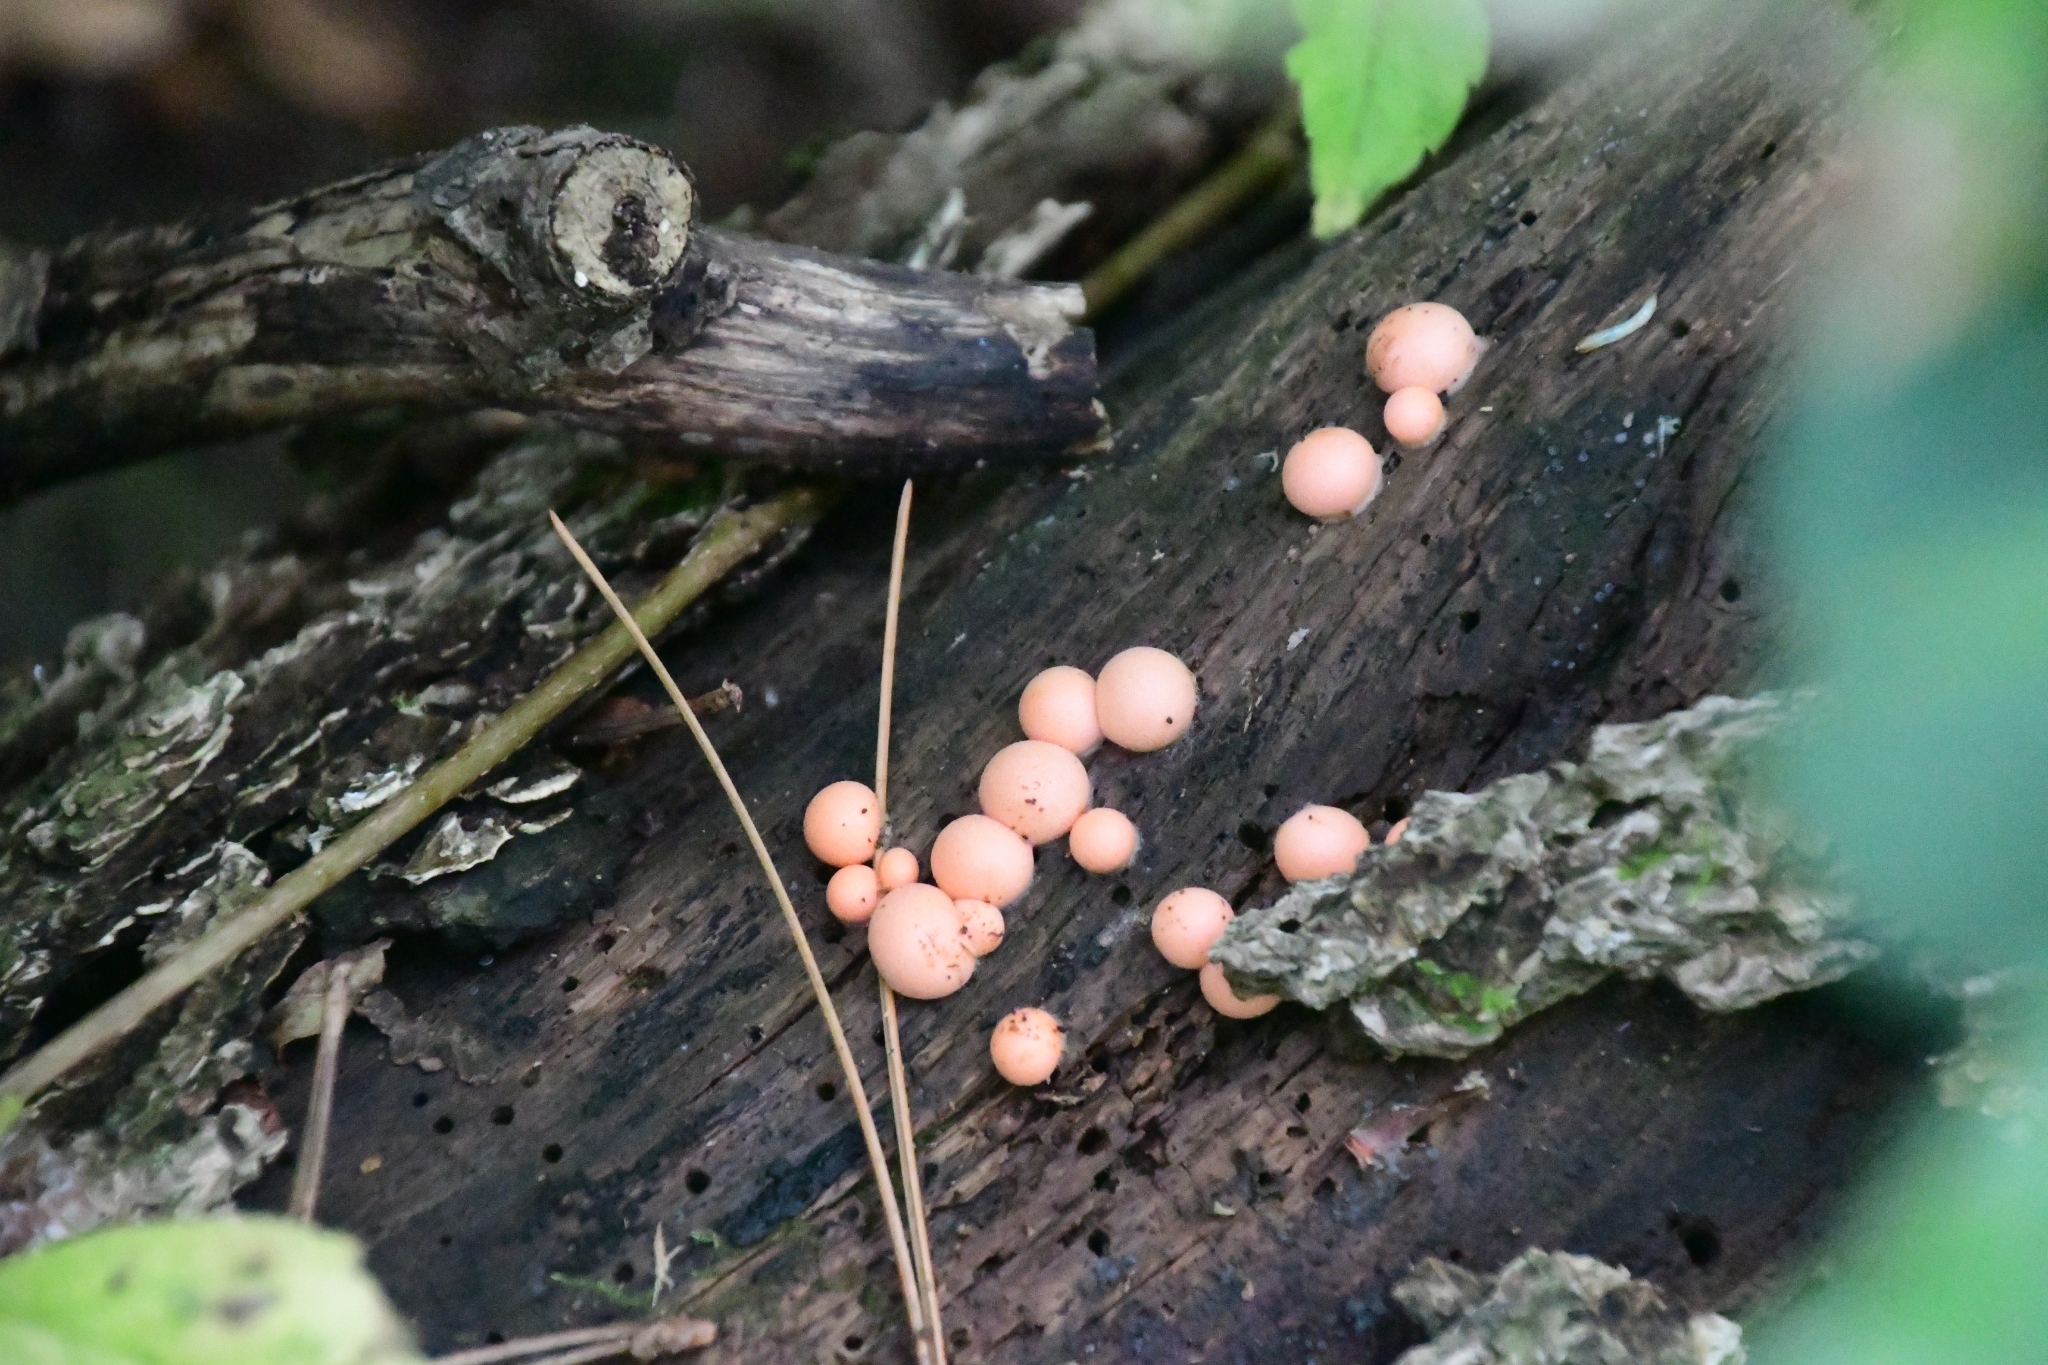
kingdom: Protozoa
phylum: Mycetozoa
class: Myxomycetes
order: Cribrariales
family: Tubiferaceae
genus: Lycogala
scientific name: Lycogala epidendrum
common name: Wolf's milk
